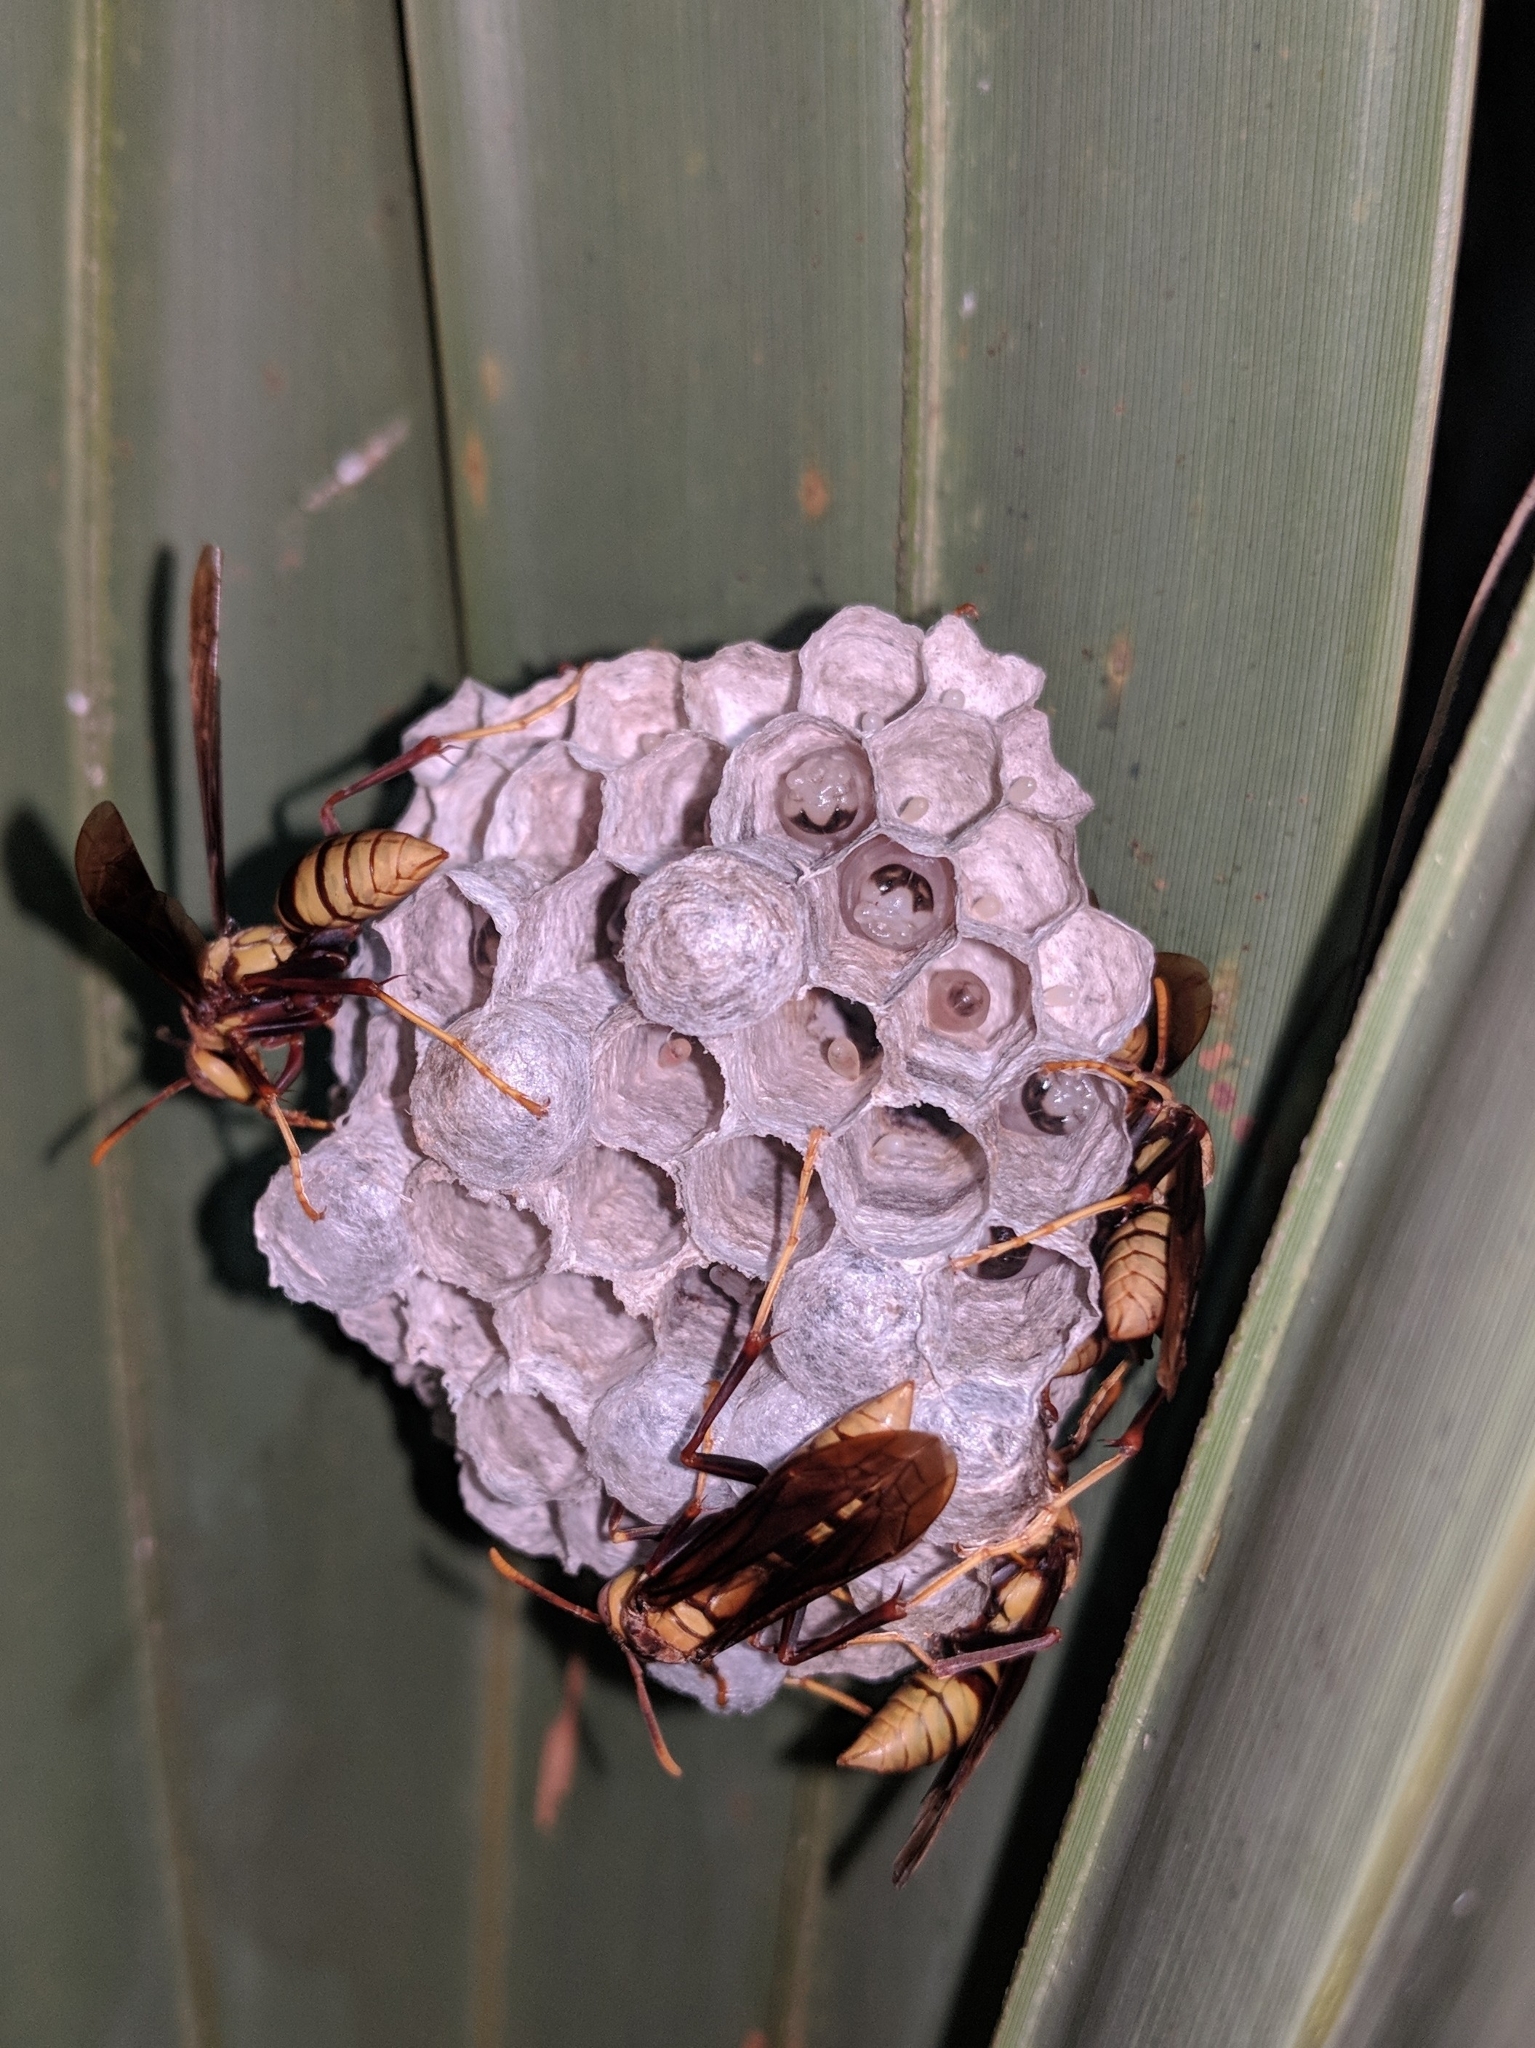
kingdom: Animalia
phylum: Arthropoda
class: Insecta
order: Hymenoptera
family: Eumenidae
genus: Polistes
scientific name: Polistes major
